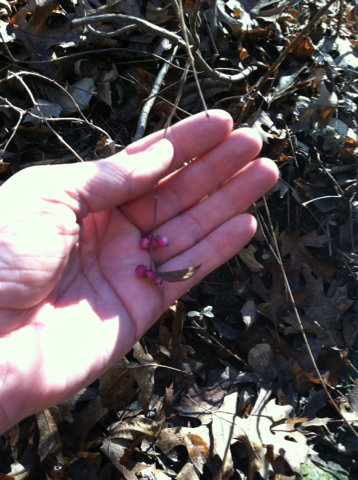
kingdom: Plantae
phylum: Tracheophyta
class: Magnoliopsida
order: Dipsacales
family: Caprifoliaceae
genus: Symphoricarpos
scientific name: Symphoricarpos orbiculatus
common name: Coralberry
